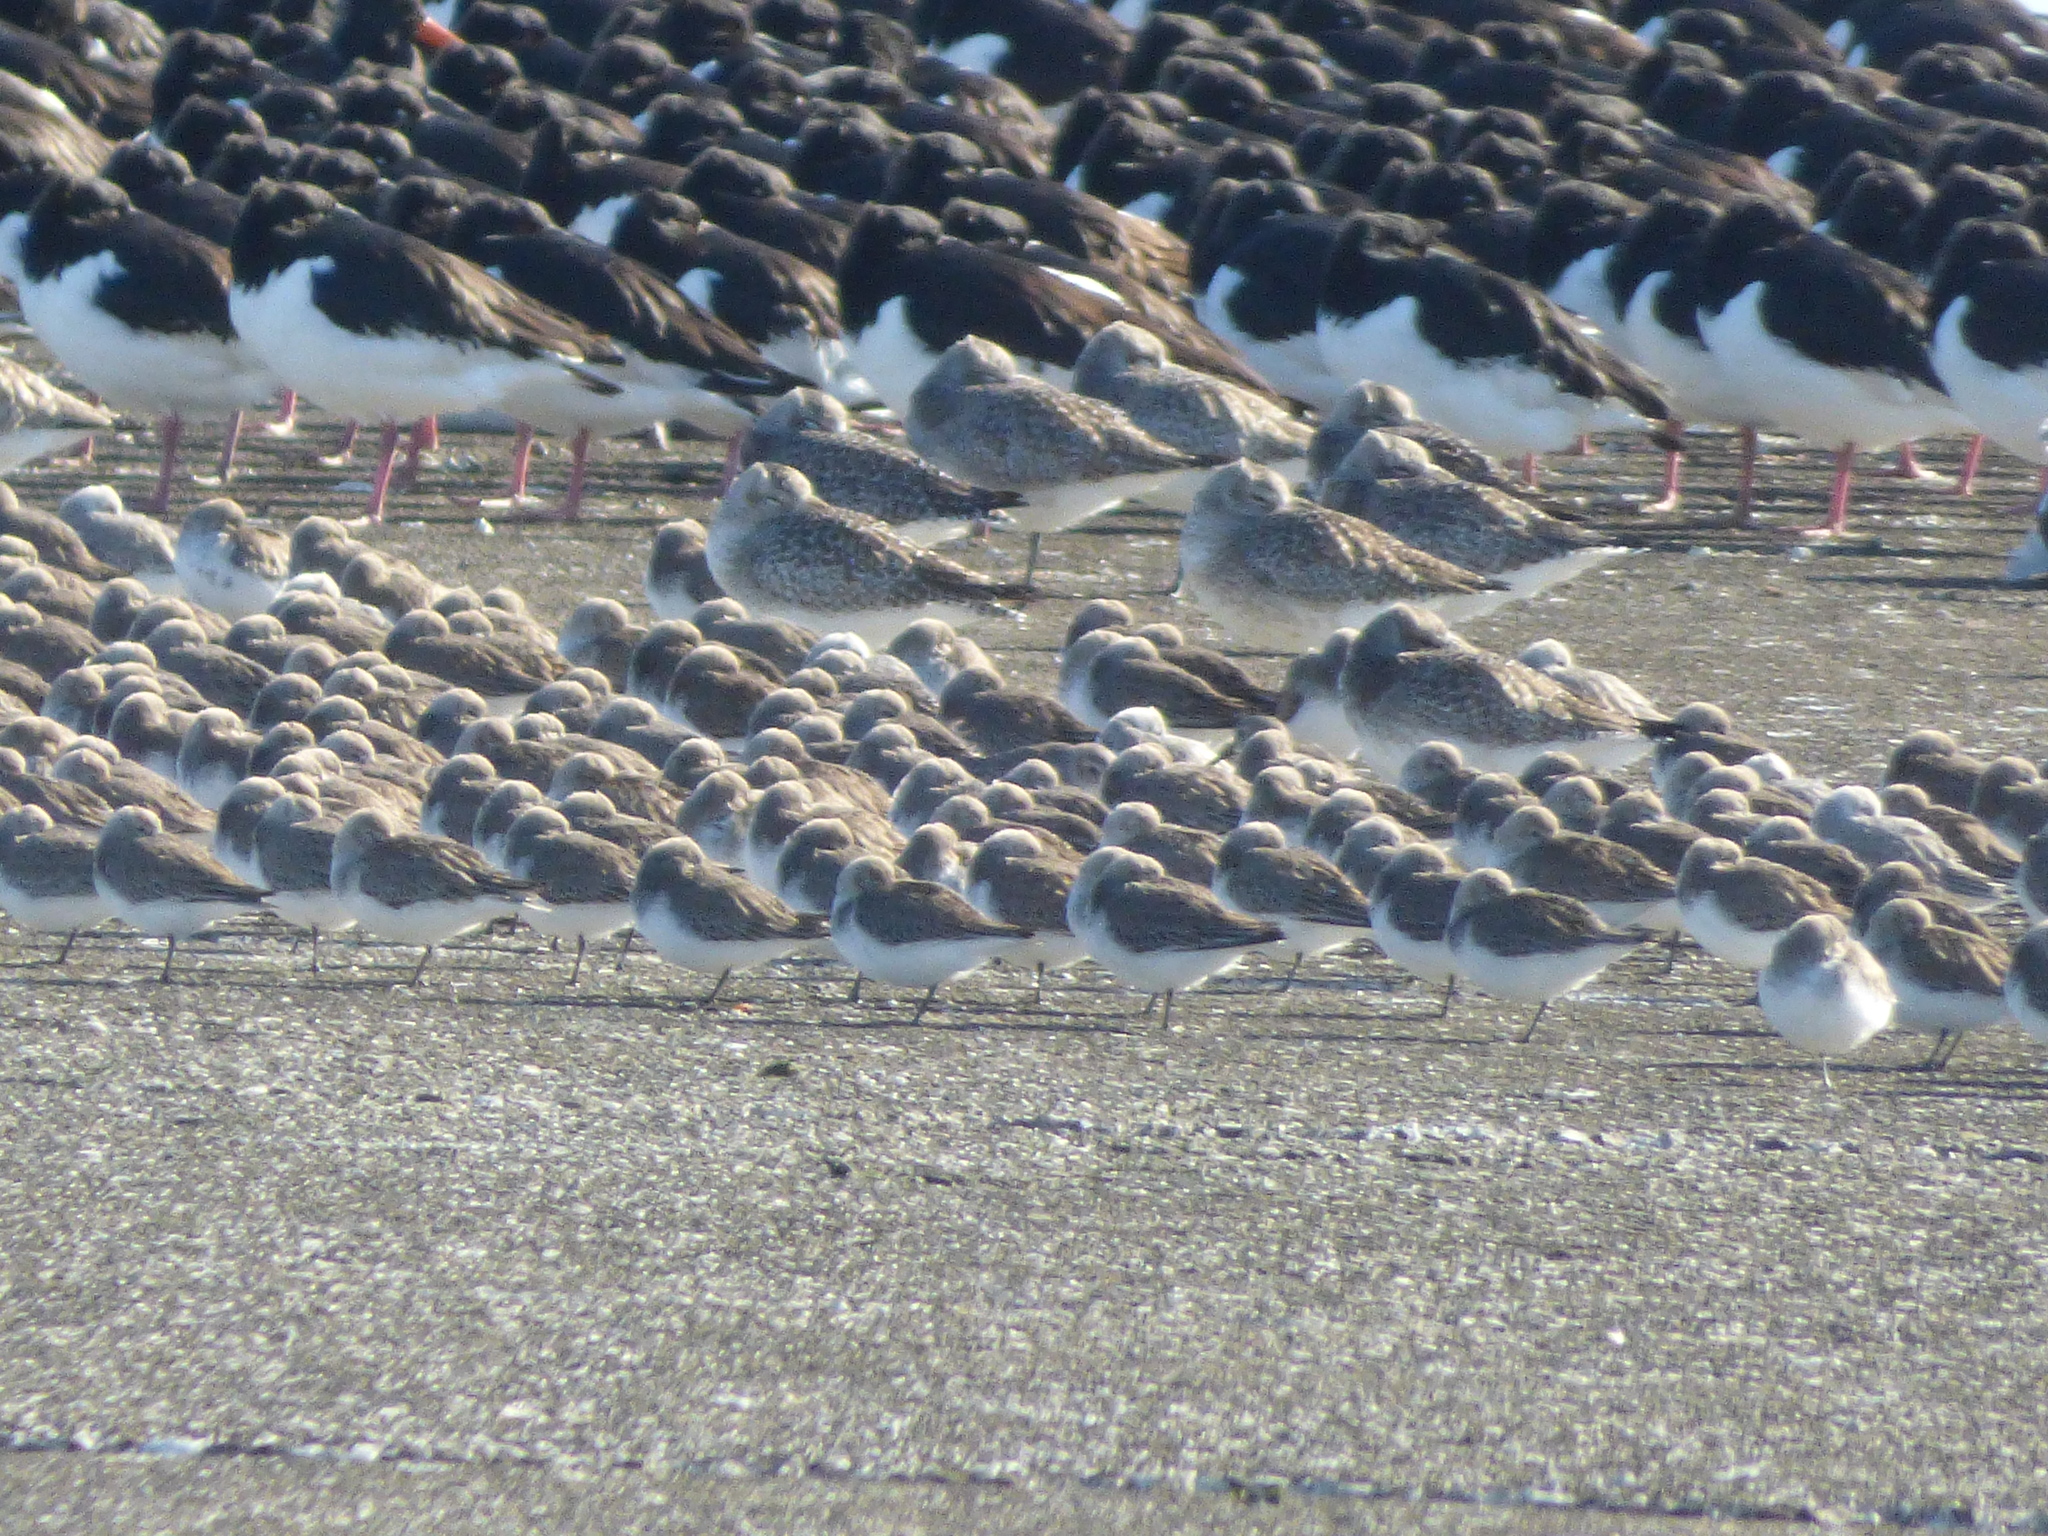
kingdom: Animalia
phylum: Chordata
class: Aves
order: Charadriiformes
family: Charadriidae
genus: Pluvialis
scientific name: Pluvialis squatarola
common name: Grey plover
